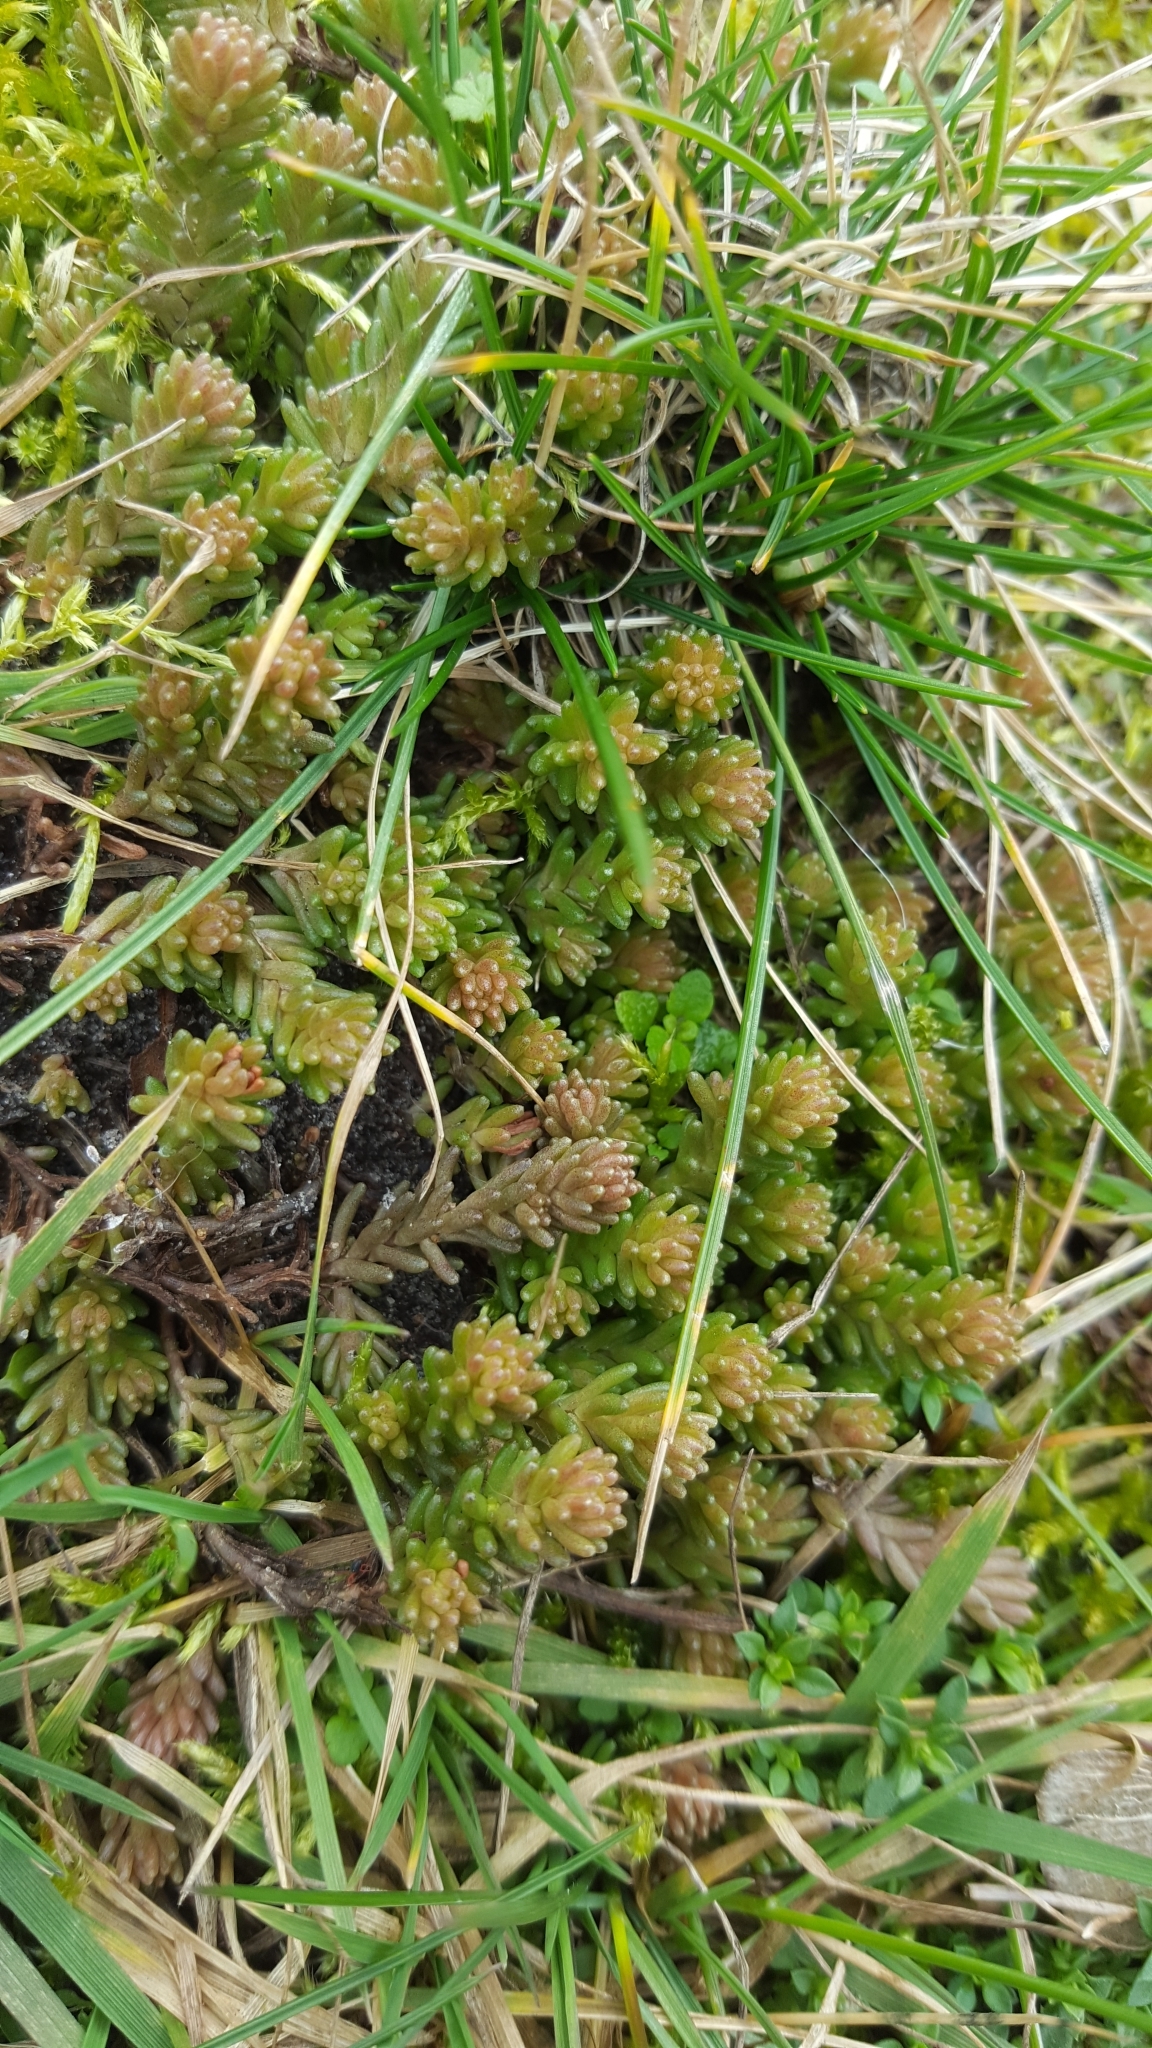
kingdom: Plantae
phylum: Tracheophyta
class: Magnoliopsida
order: Saxifragales
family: Crassulaceae
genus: Sedum
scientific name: Sedum sexangulare
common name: Tasteless stonecrop
